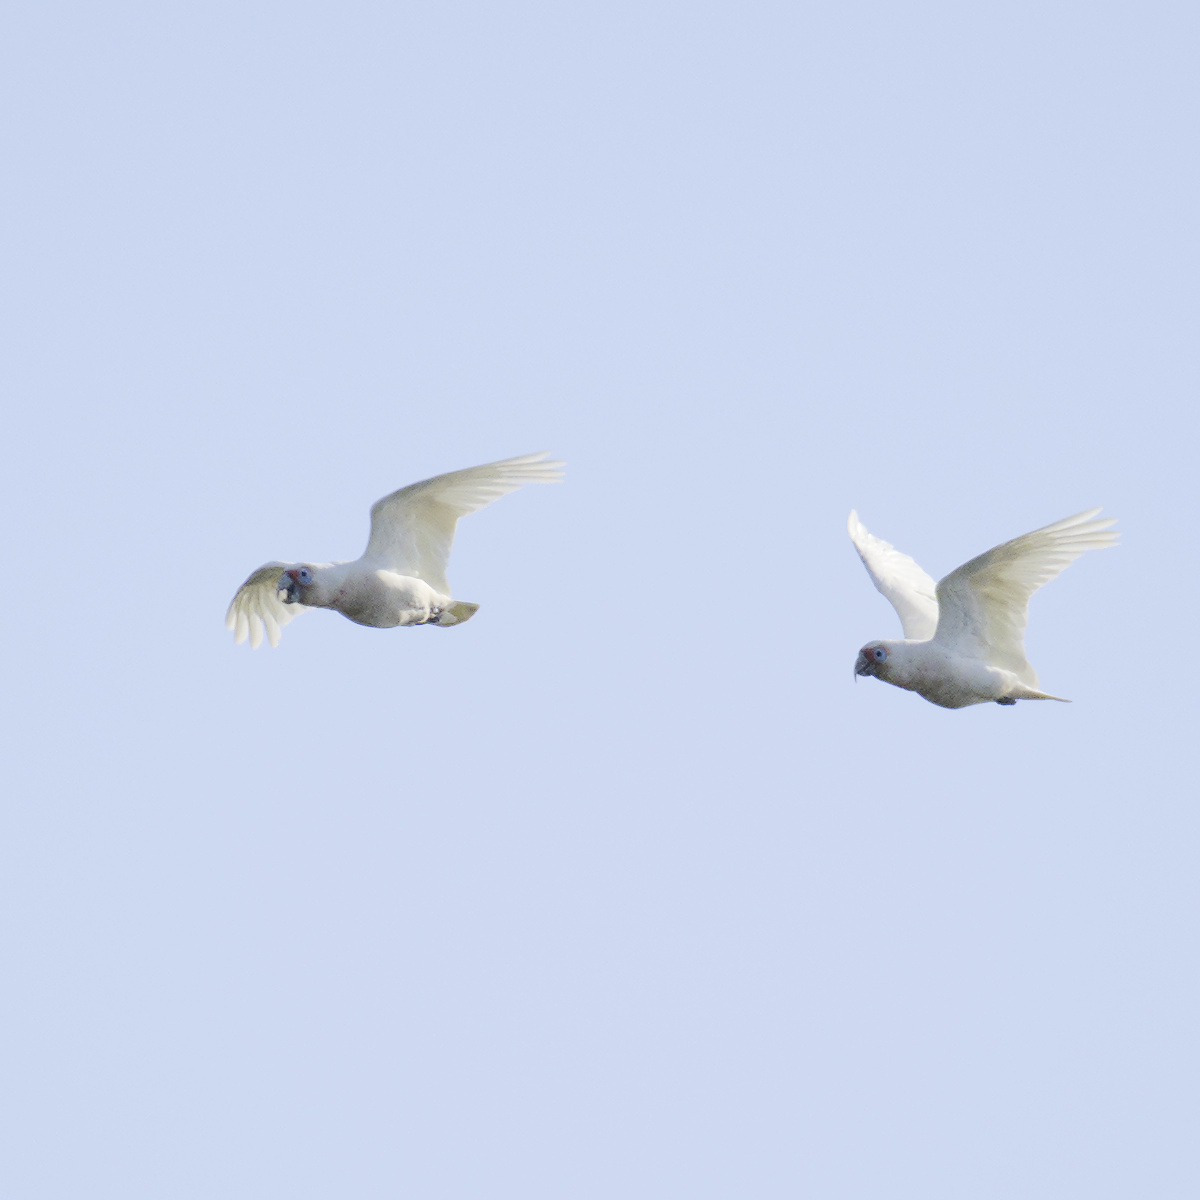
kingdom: Animalia
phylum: Chordata
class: Aves
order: Psittaciformes
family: Psittacidae
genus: Cacatua
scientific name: Cacatua tenuirostris
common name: Long-billed corella
